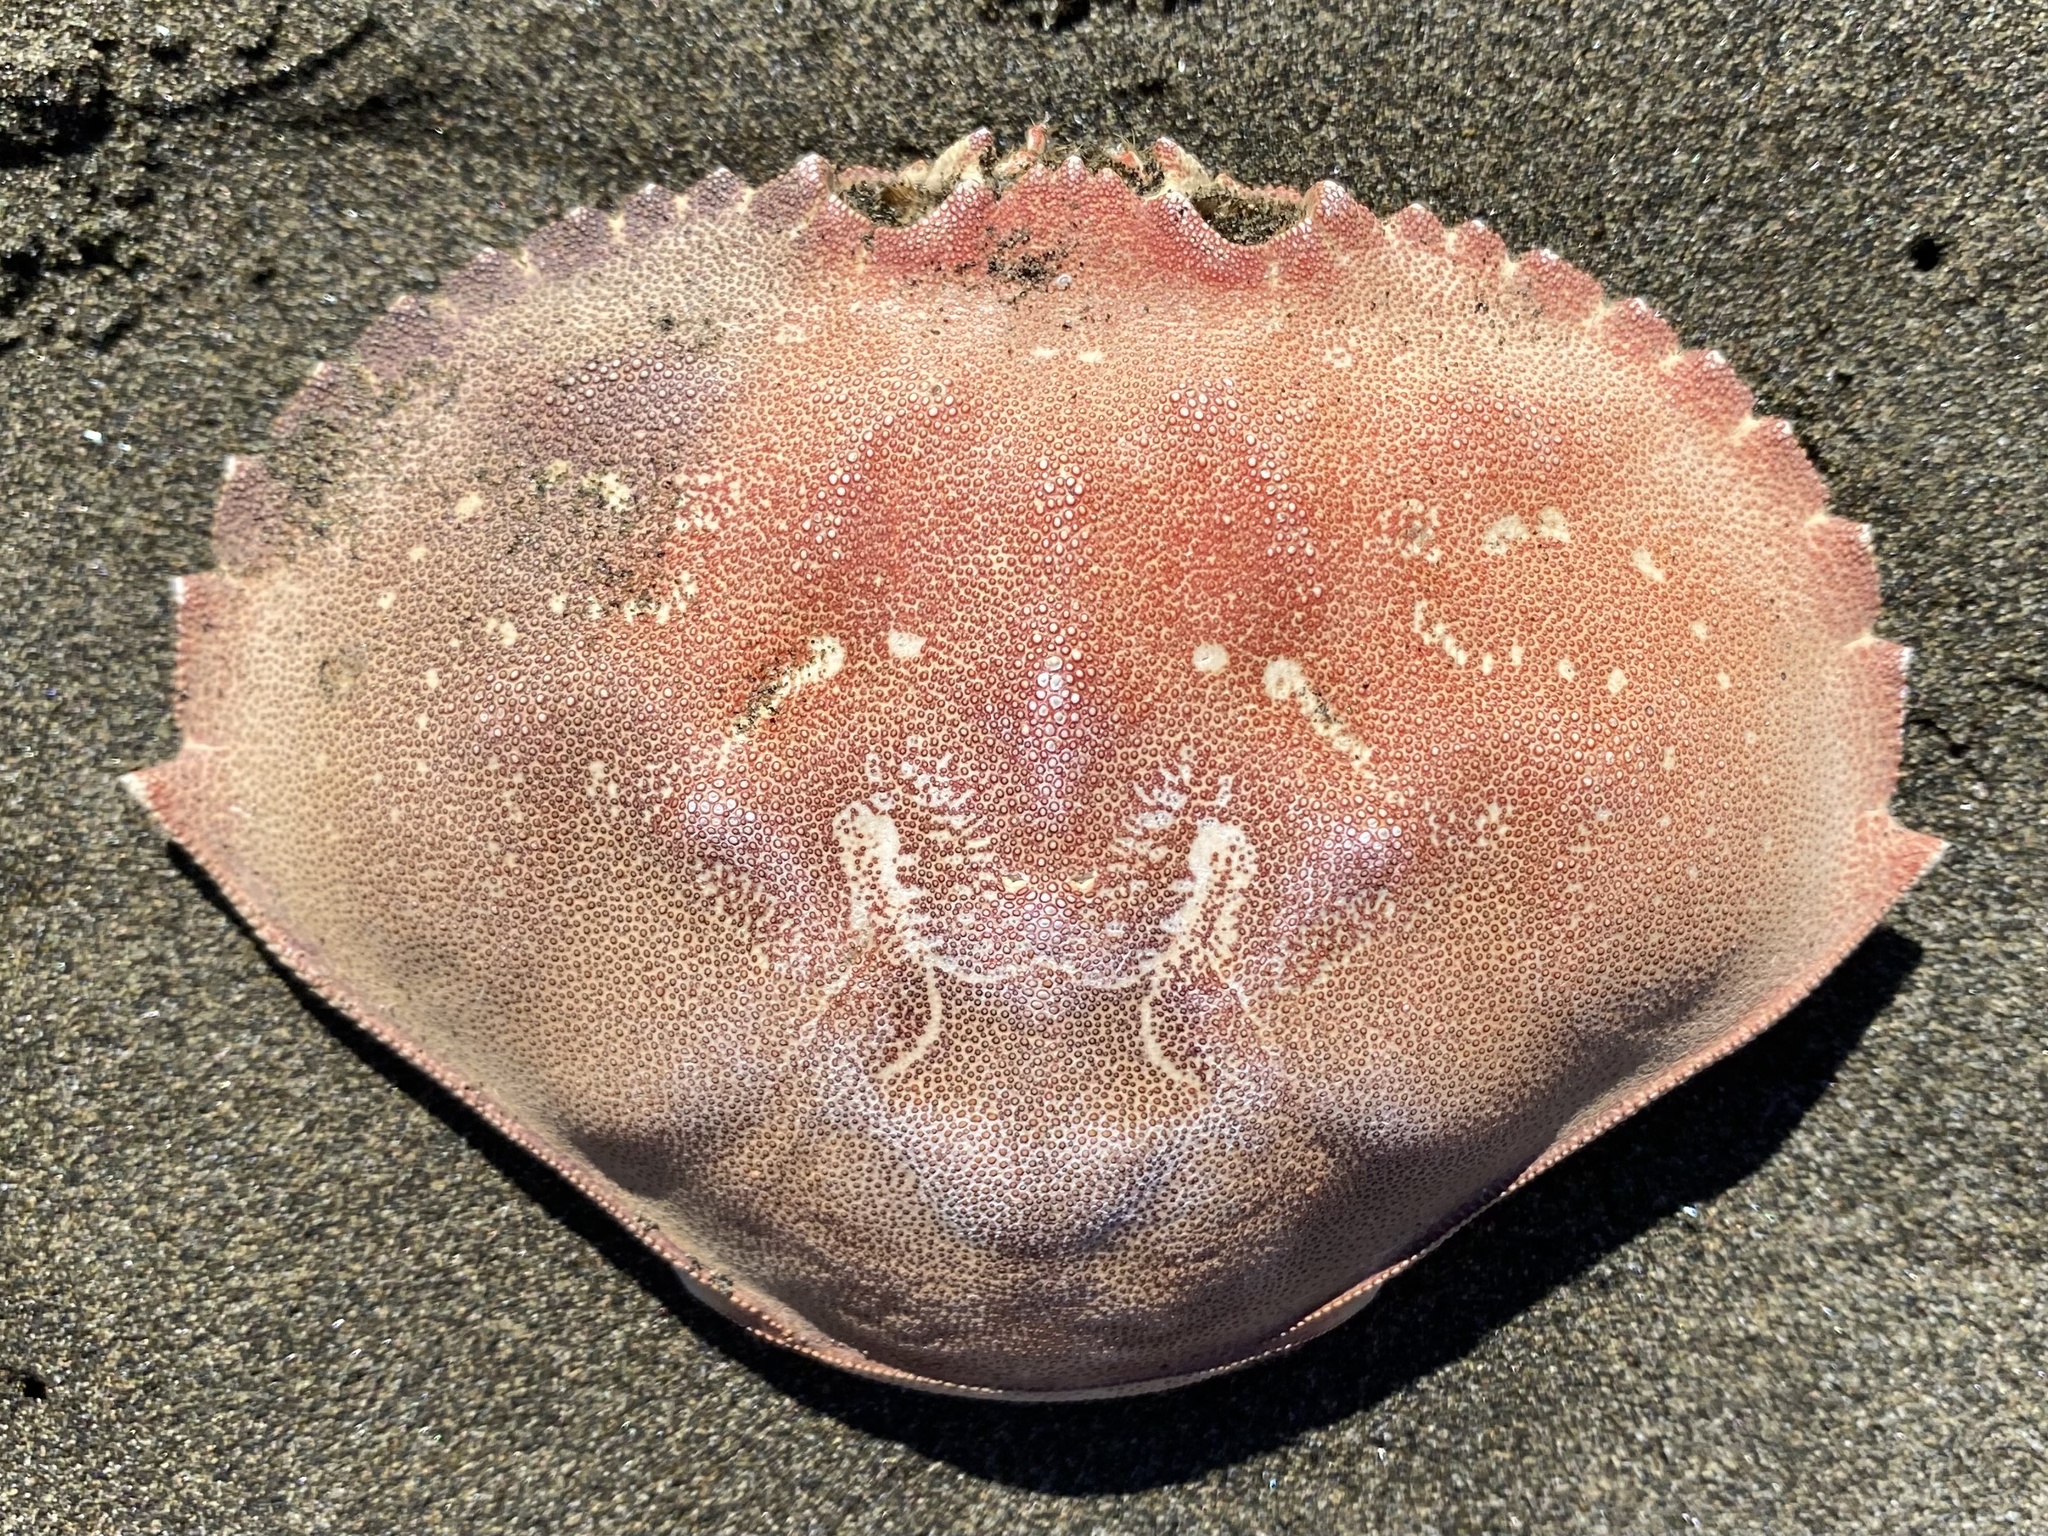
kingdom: Animalia
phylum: Arthropoda
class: Malacostraca
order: Decapoda
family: Cancridae
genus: Metacarcinus
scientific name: Metacarcinus magister
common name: Californian crab
